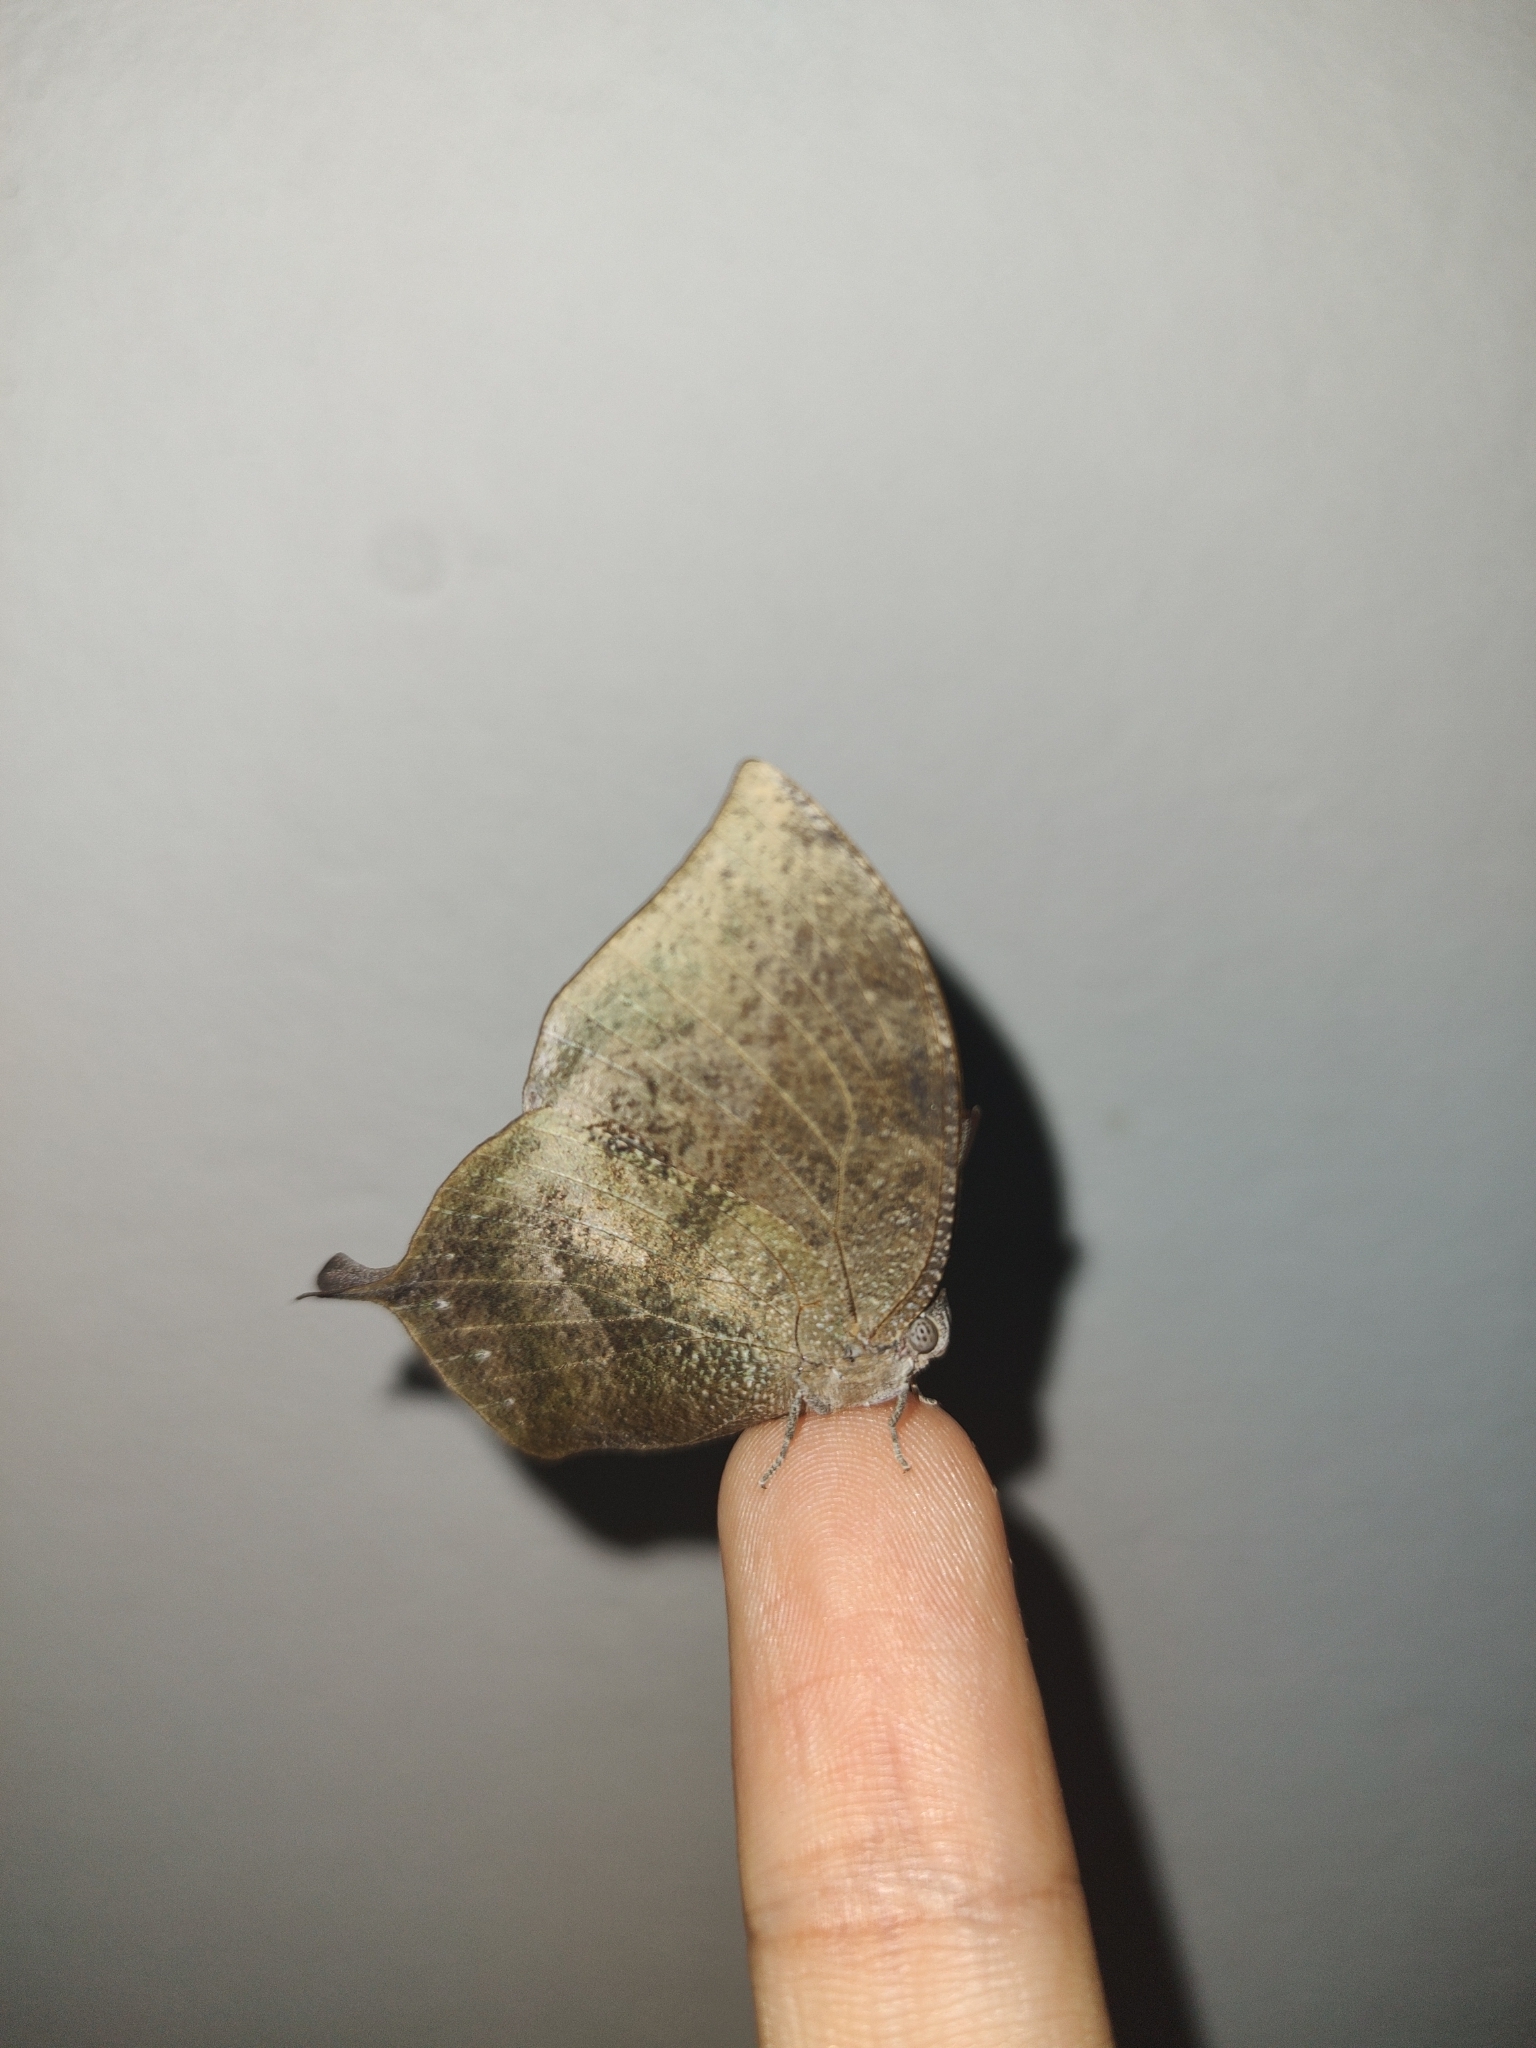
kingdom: Animalia
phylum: Arthropoda
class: Insecta
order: Lepidoptera
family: Nymphalidae
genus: Memphis
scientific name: Memphis moruus
